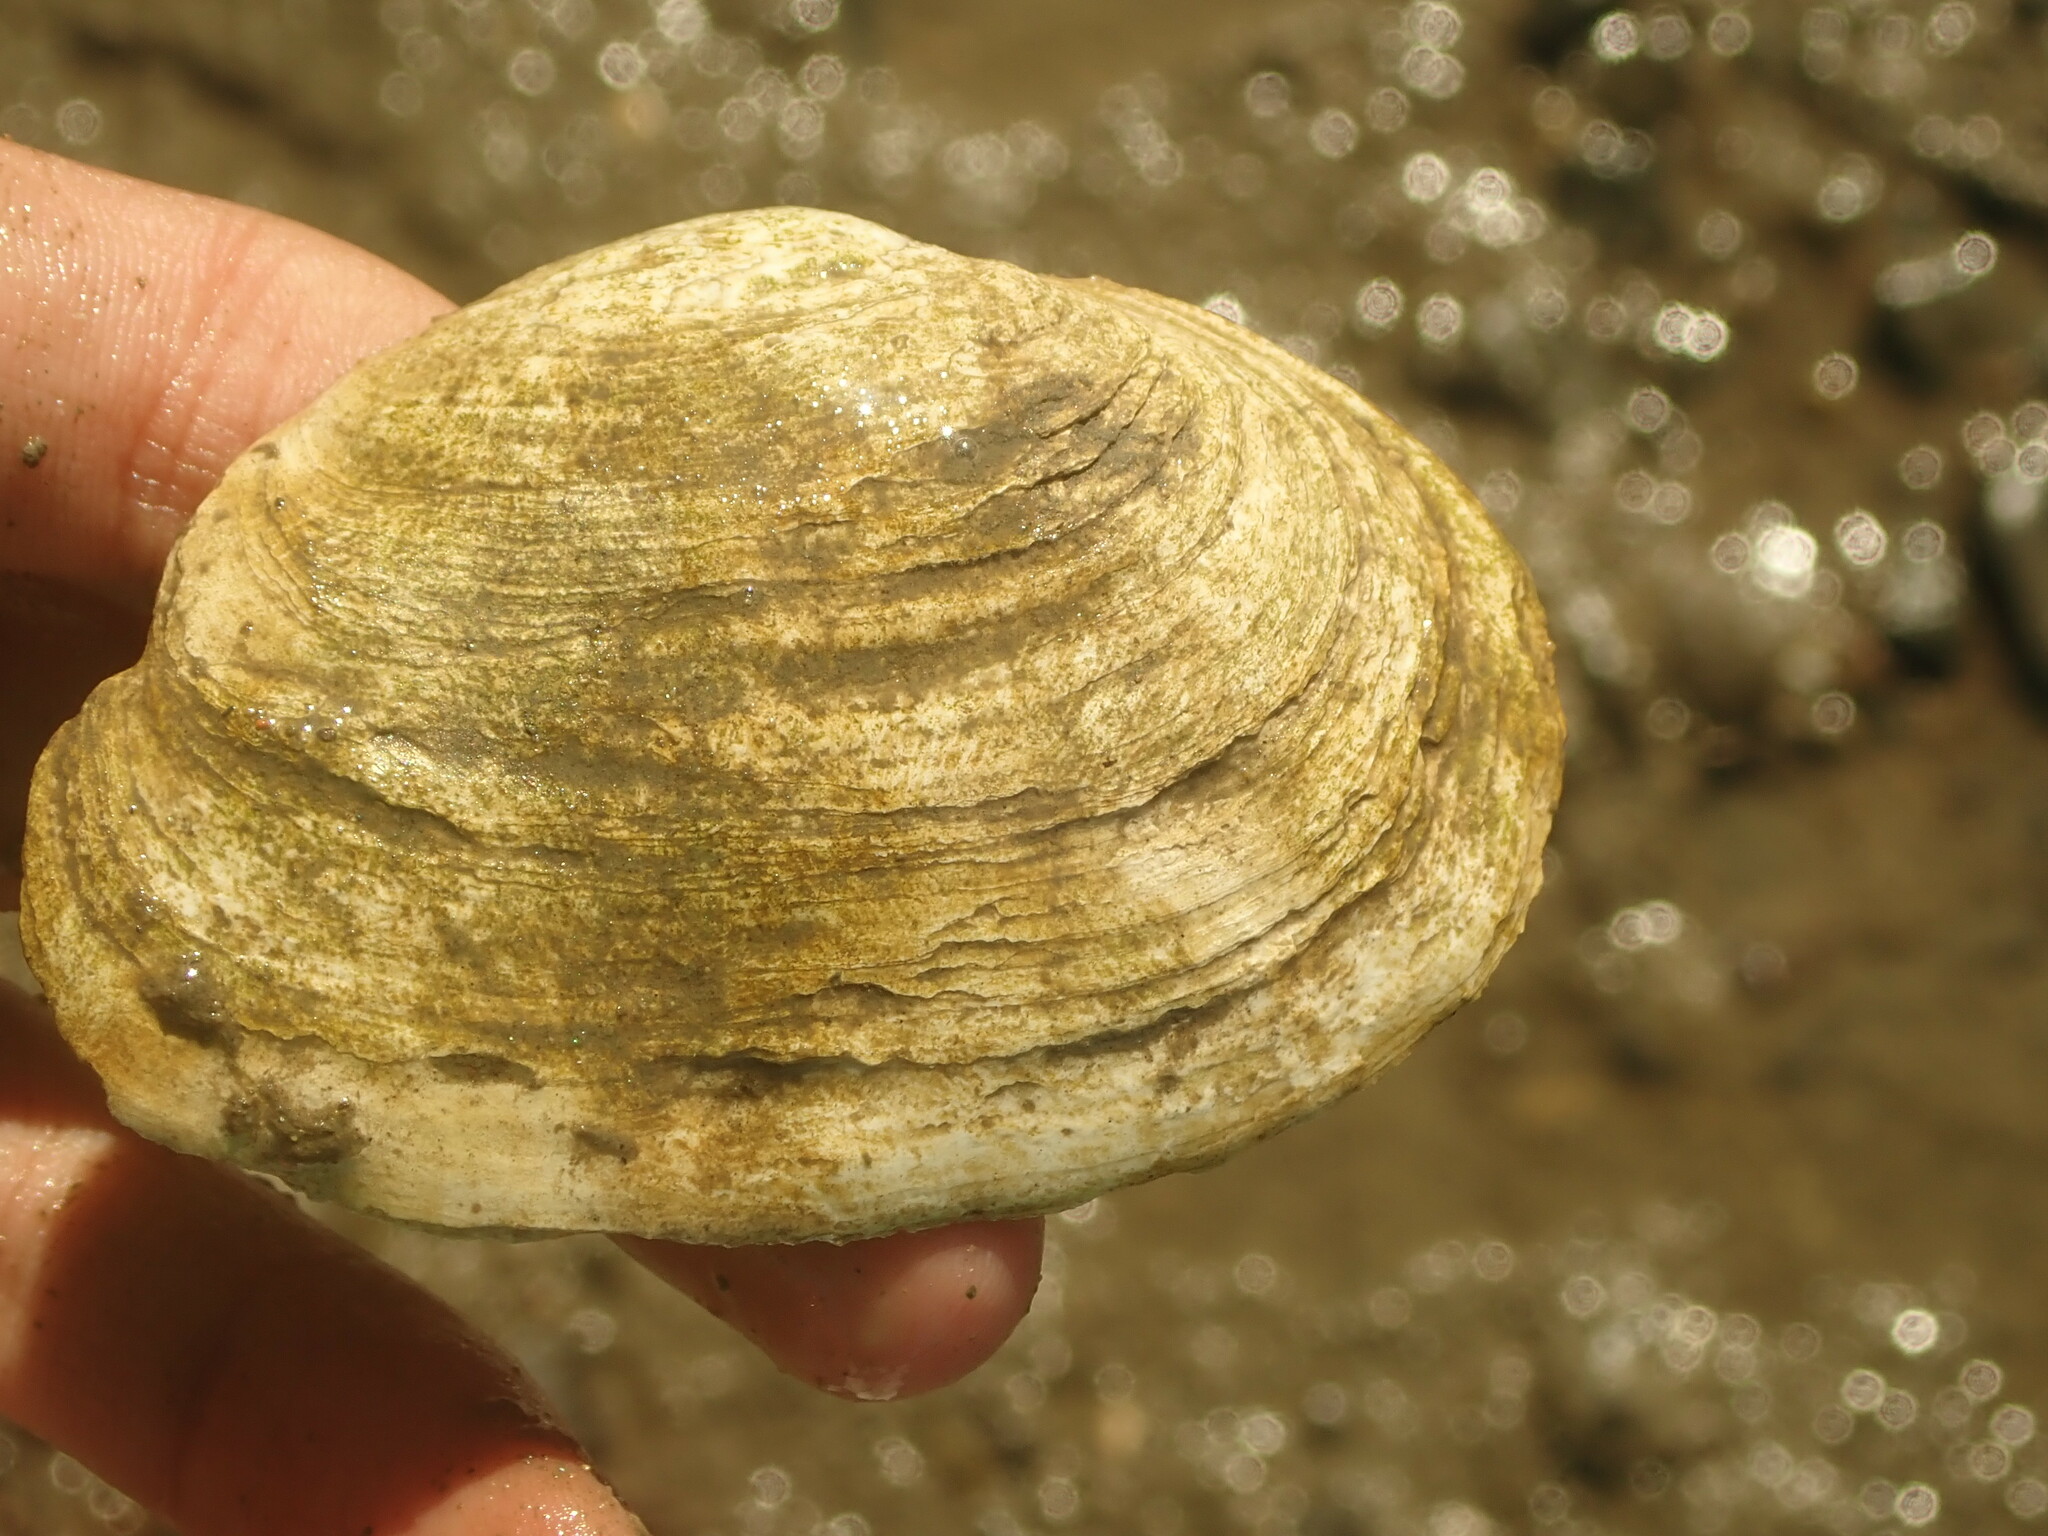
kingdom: Animalia
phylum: Mollusca
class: Bivalvia
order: Myida
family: Myidae
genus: Mya
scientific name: Mya arenaria
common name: Soft-shelled clam
